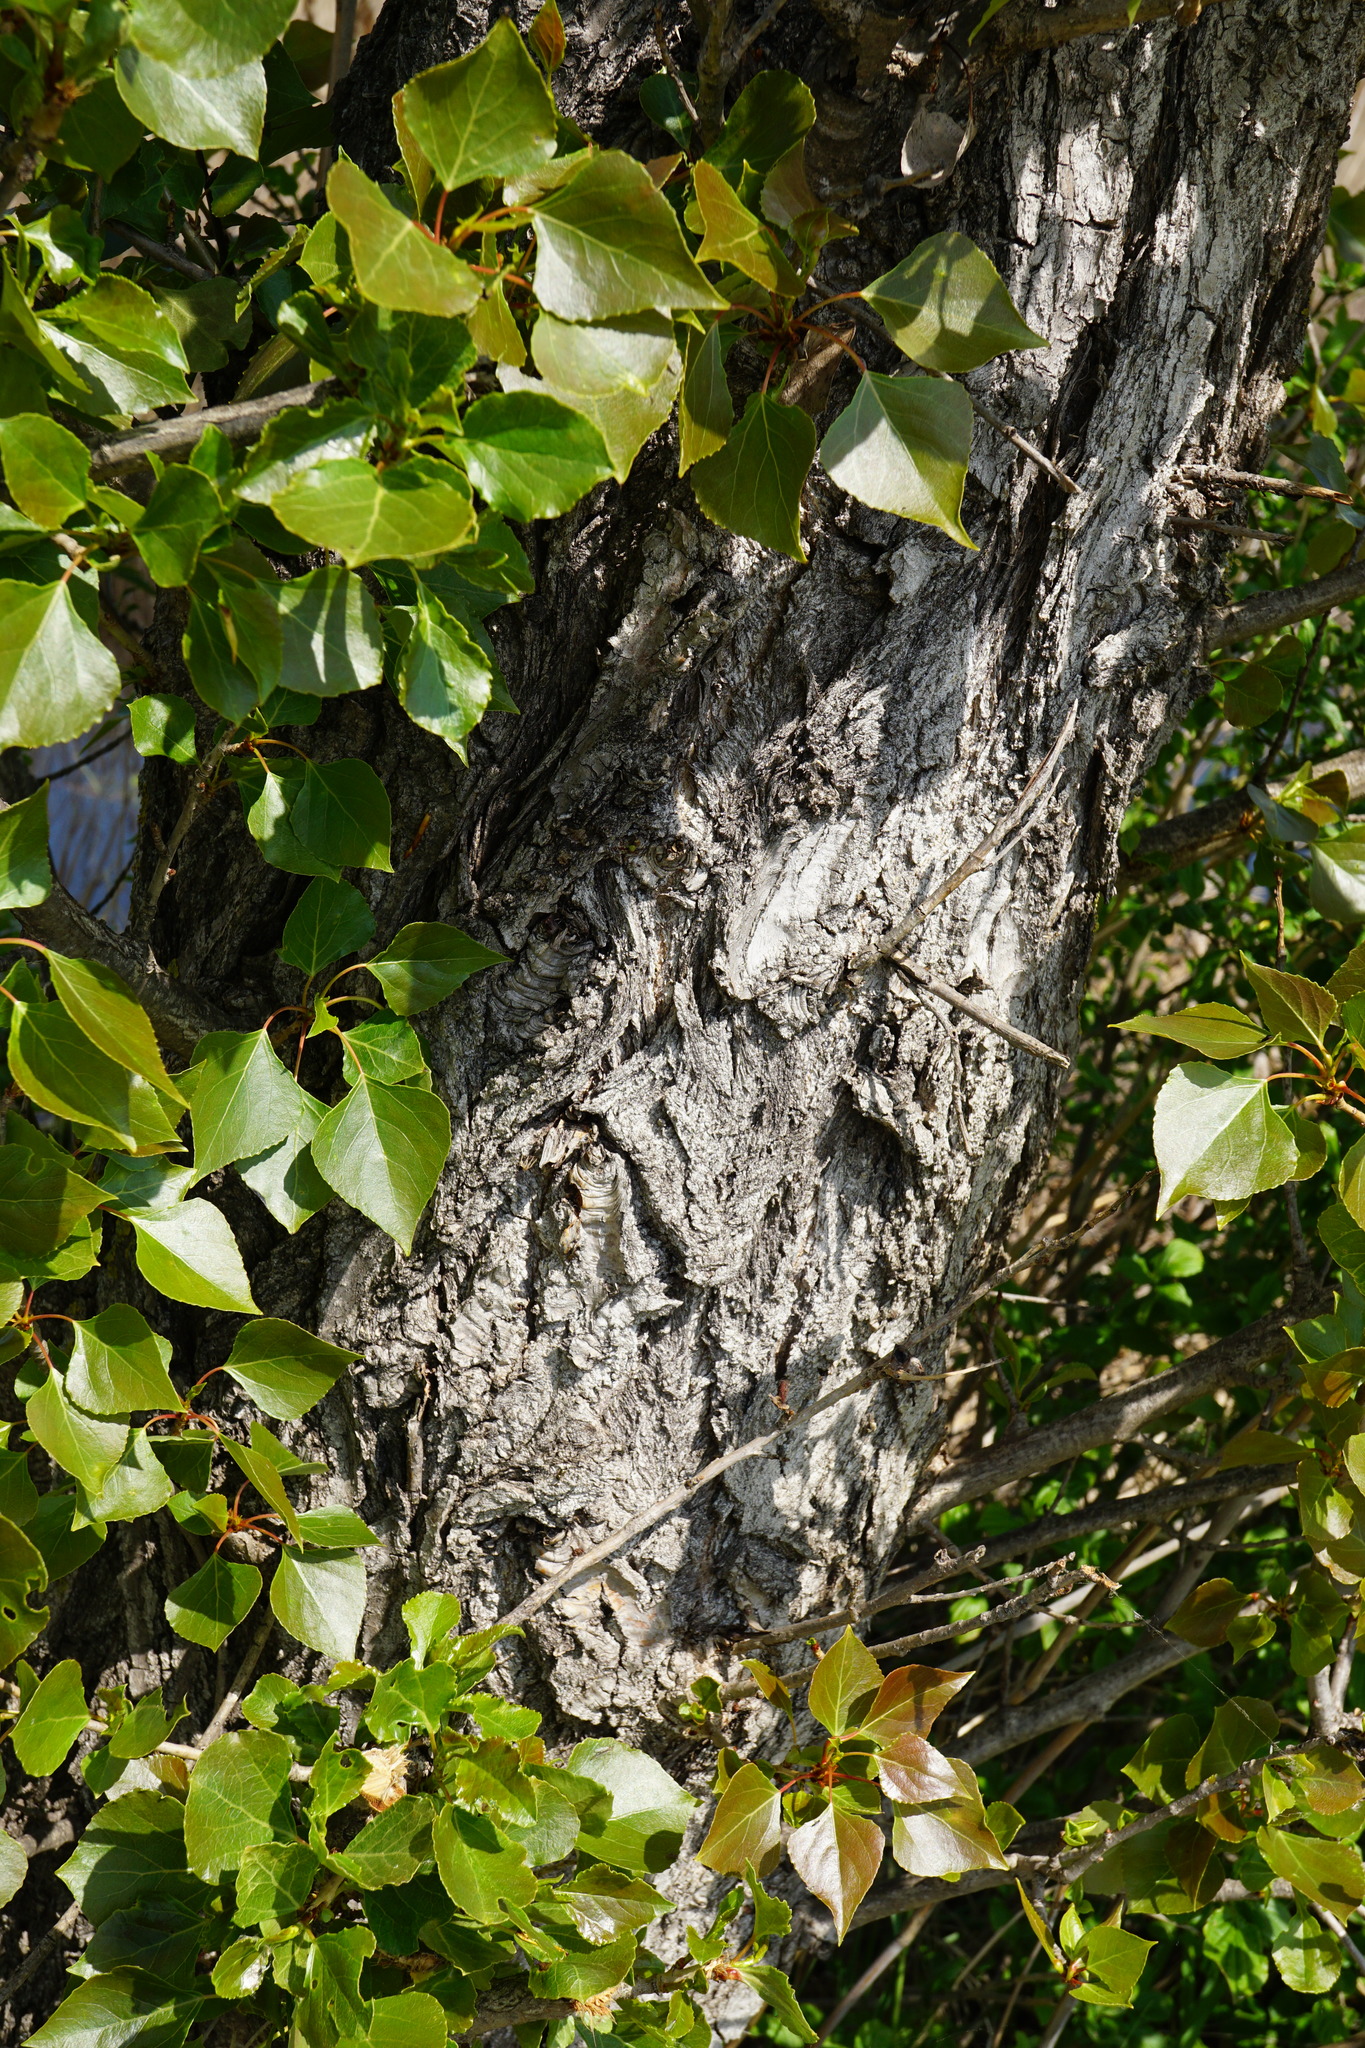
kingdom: Plantae
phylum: Tracheophyta
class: Magnoliopsida
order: Malpighiales
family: Salicaceae
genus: Populus
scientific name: Populus nigra
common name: Black poplar
